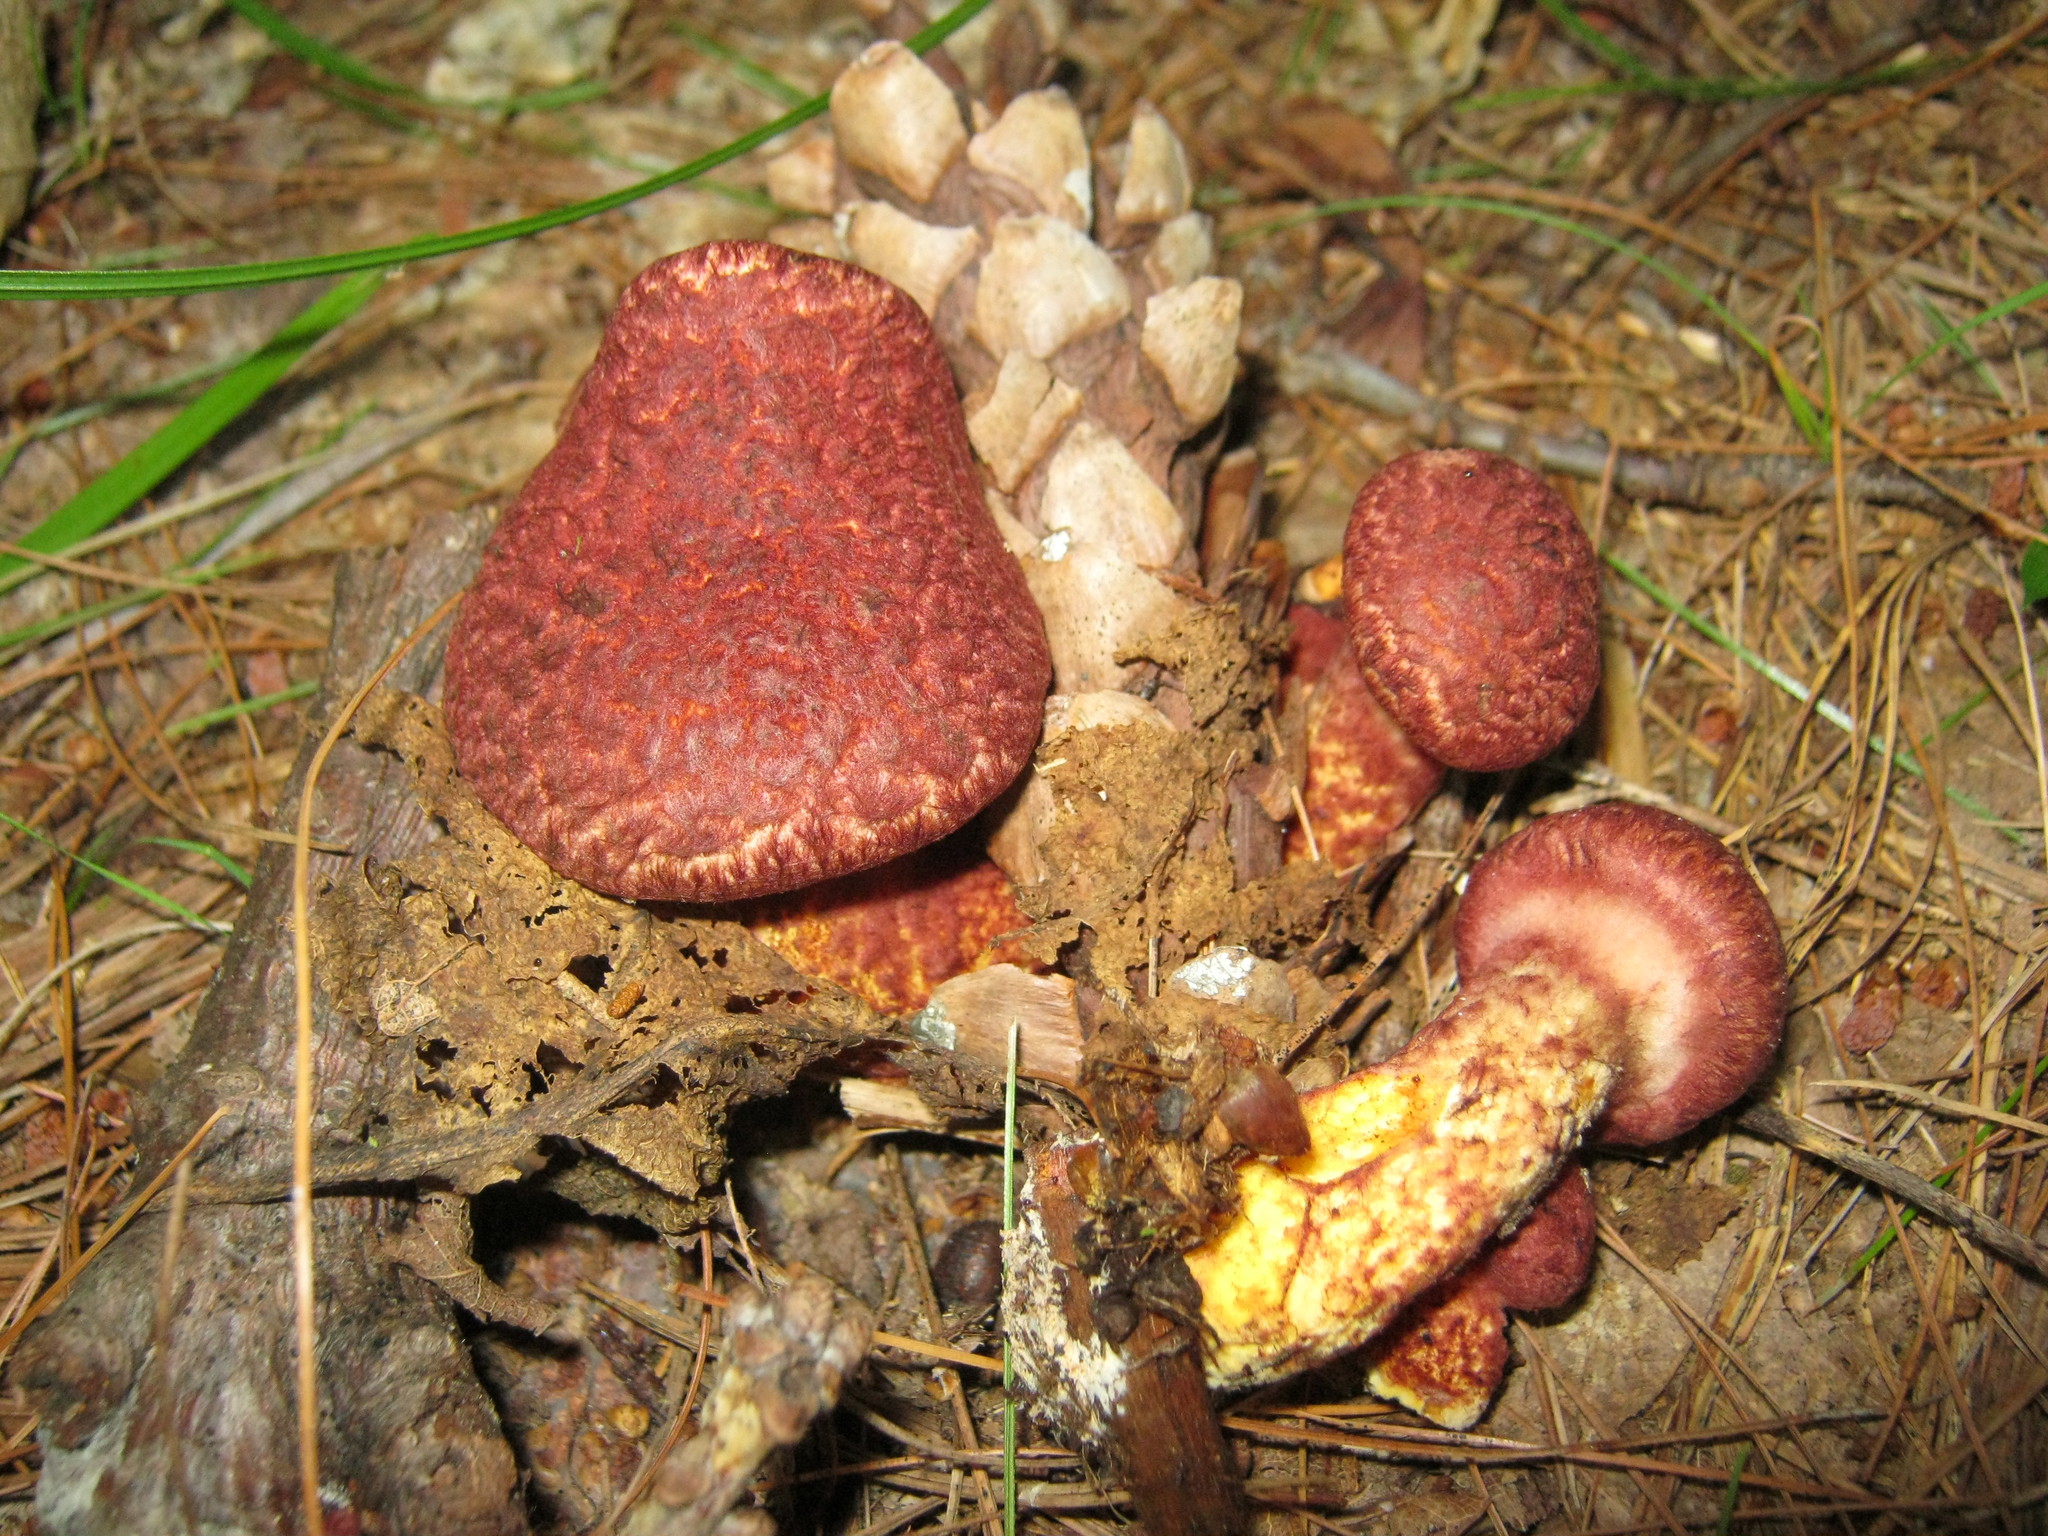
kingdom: Fungi
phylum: Basidiomycota
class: Agaricomycetes
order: Boletales
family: Suillaceae
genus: Suillus
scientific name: Suillus spraguei
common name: Painted suillus
